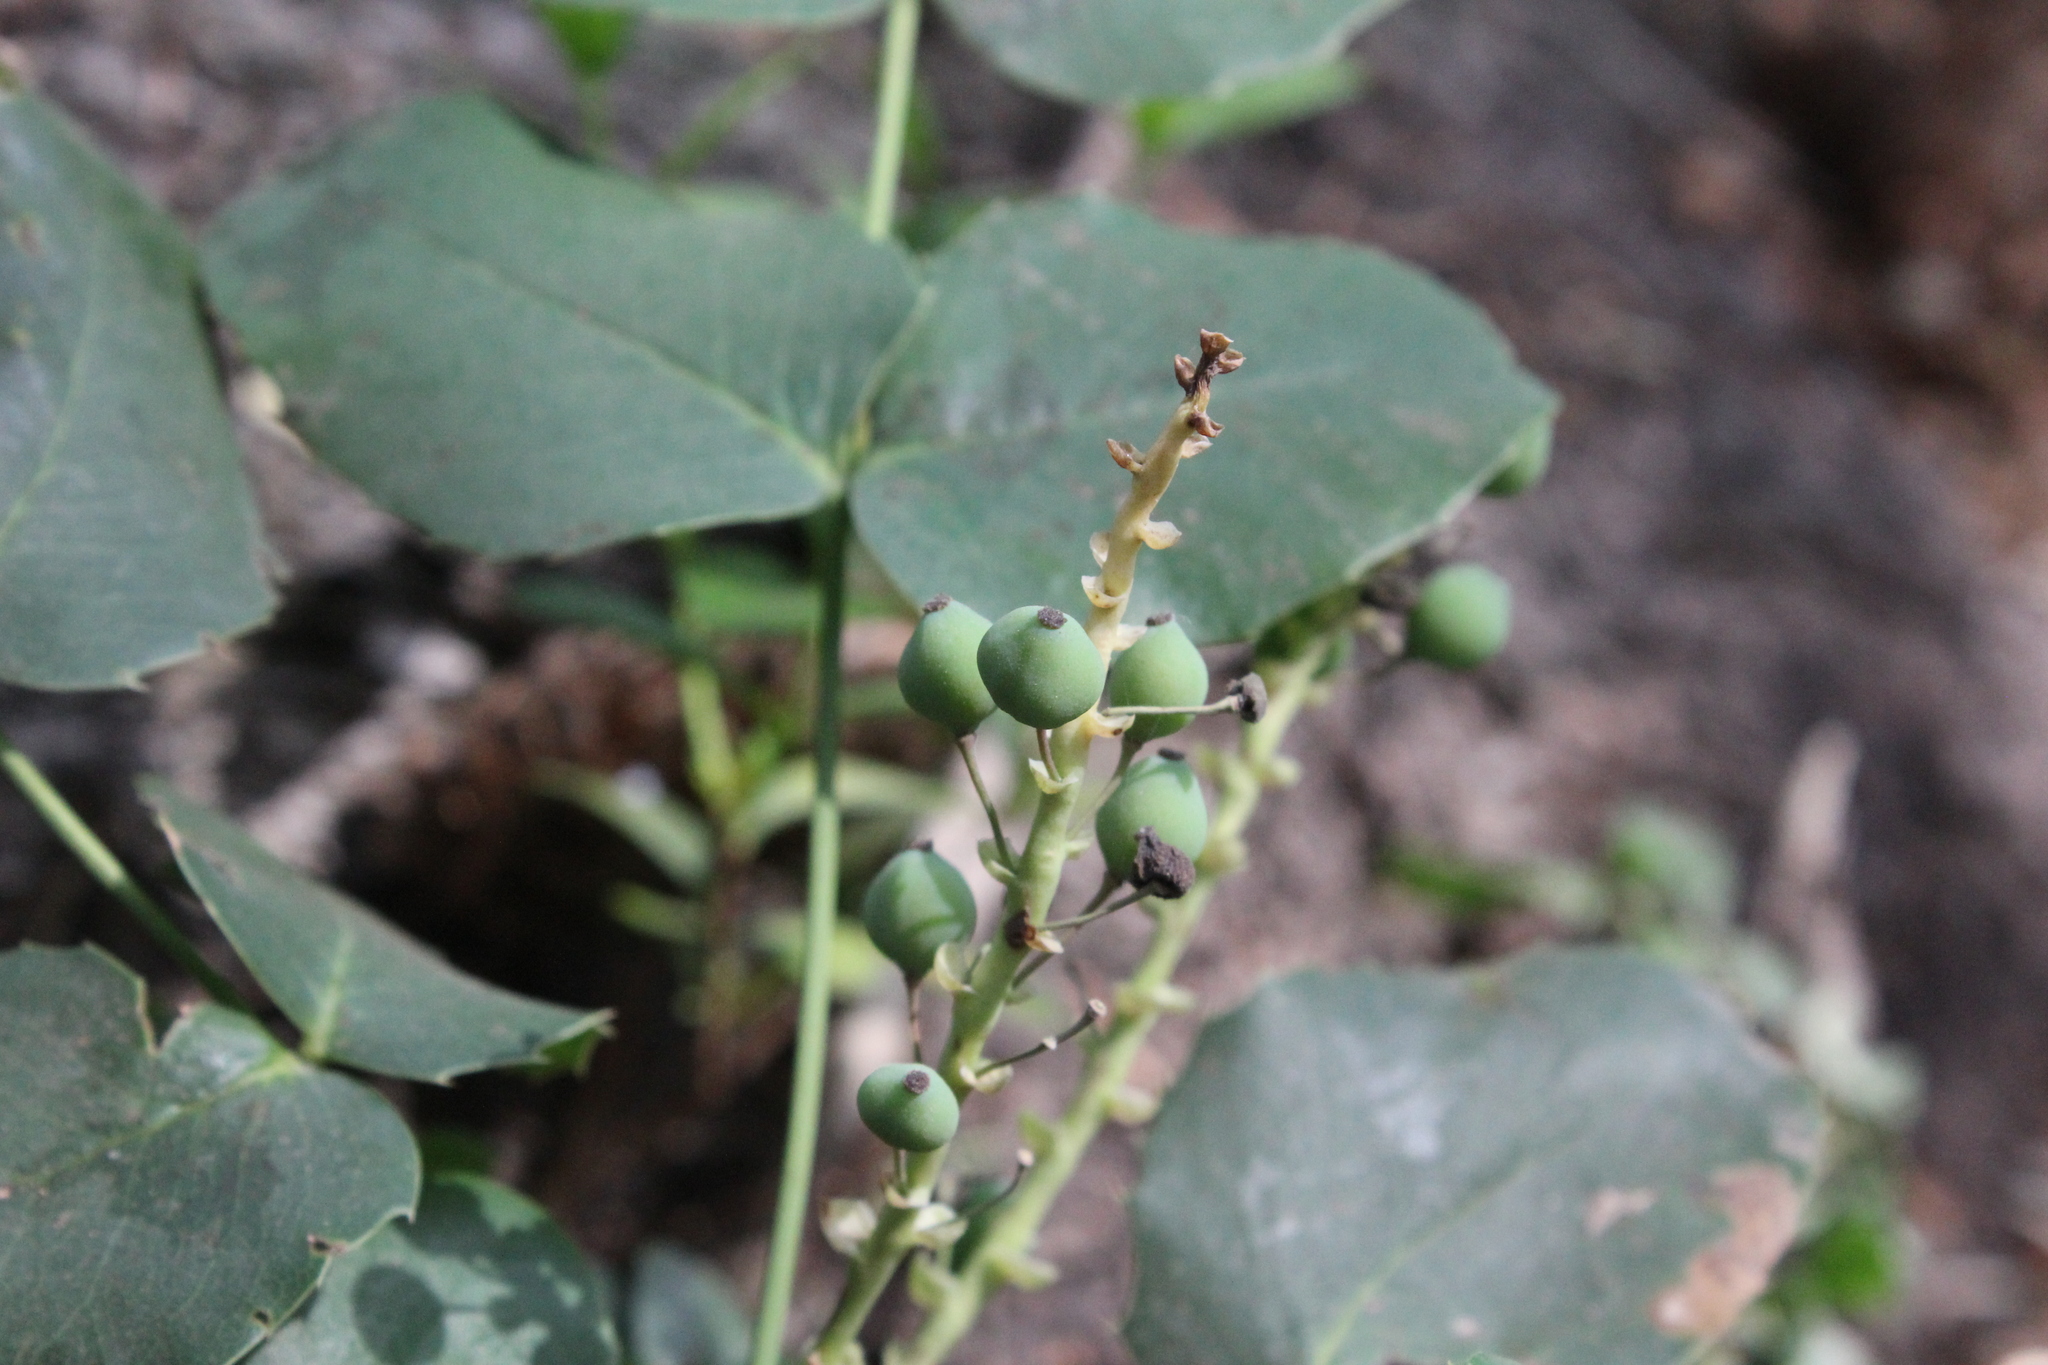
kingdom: Plantae
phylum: Tracheophyta
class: Magnoliopsida
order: Ranunculales
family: Berberidaceae
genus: Mahonia
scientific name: Mahonia repens
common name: Creeping oregon-grape
